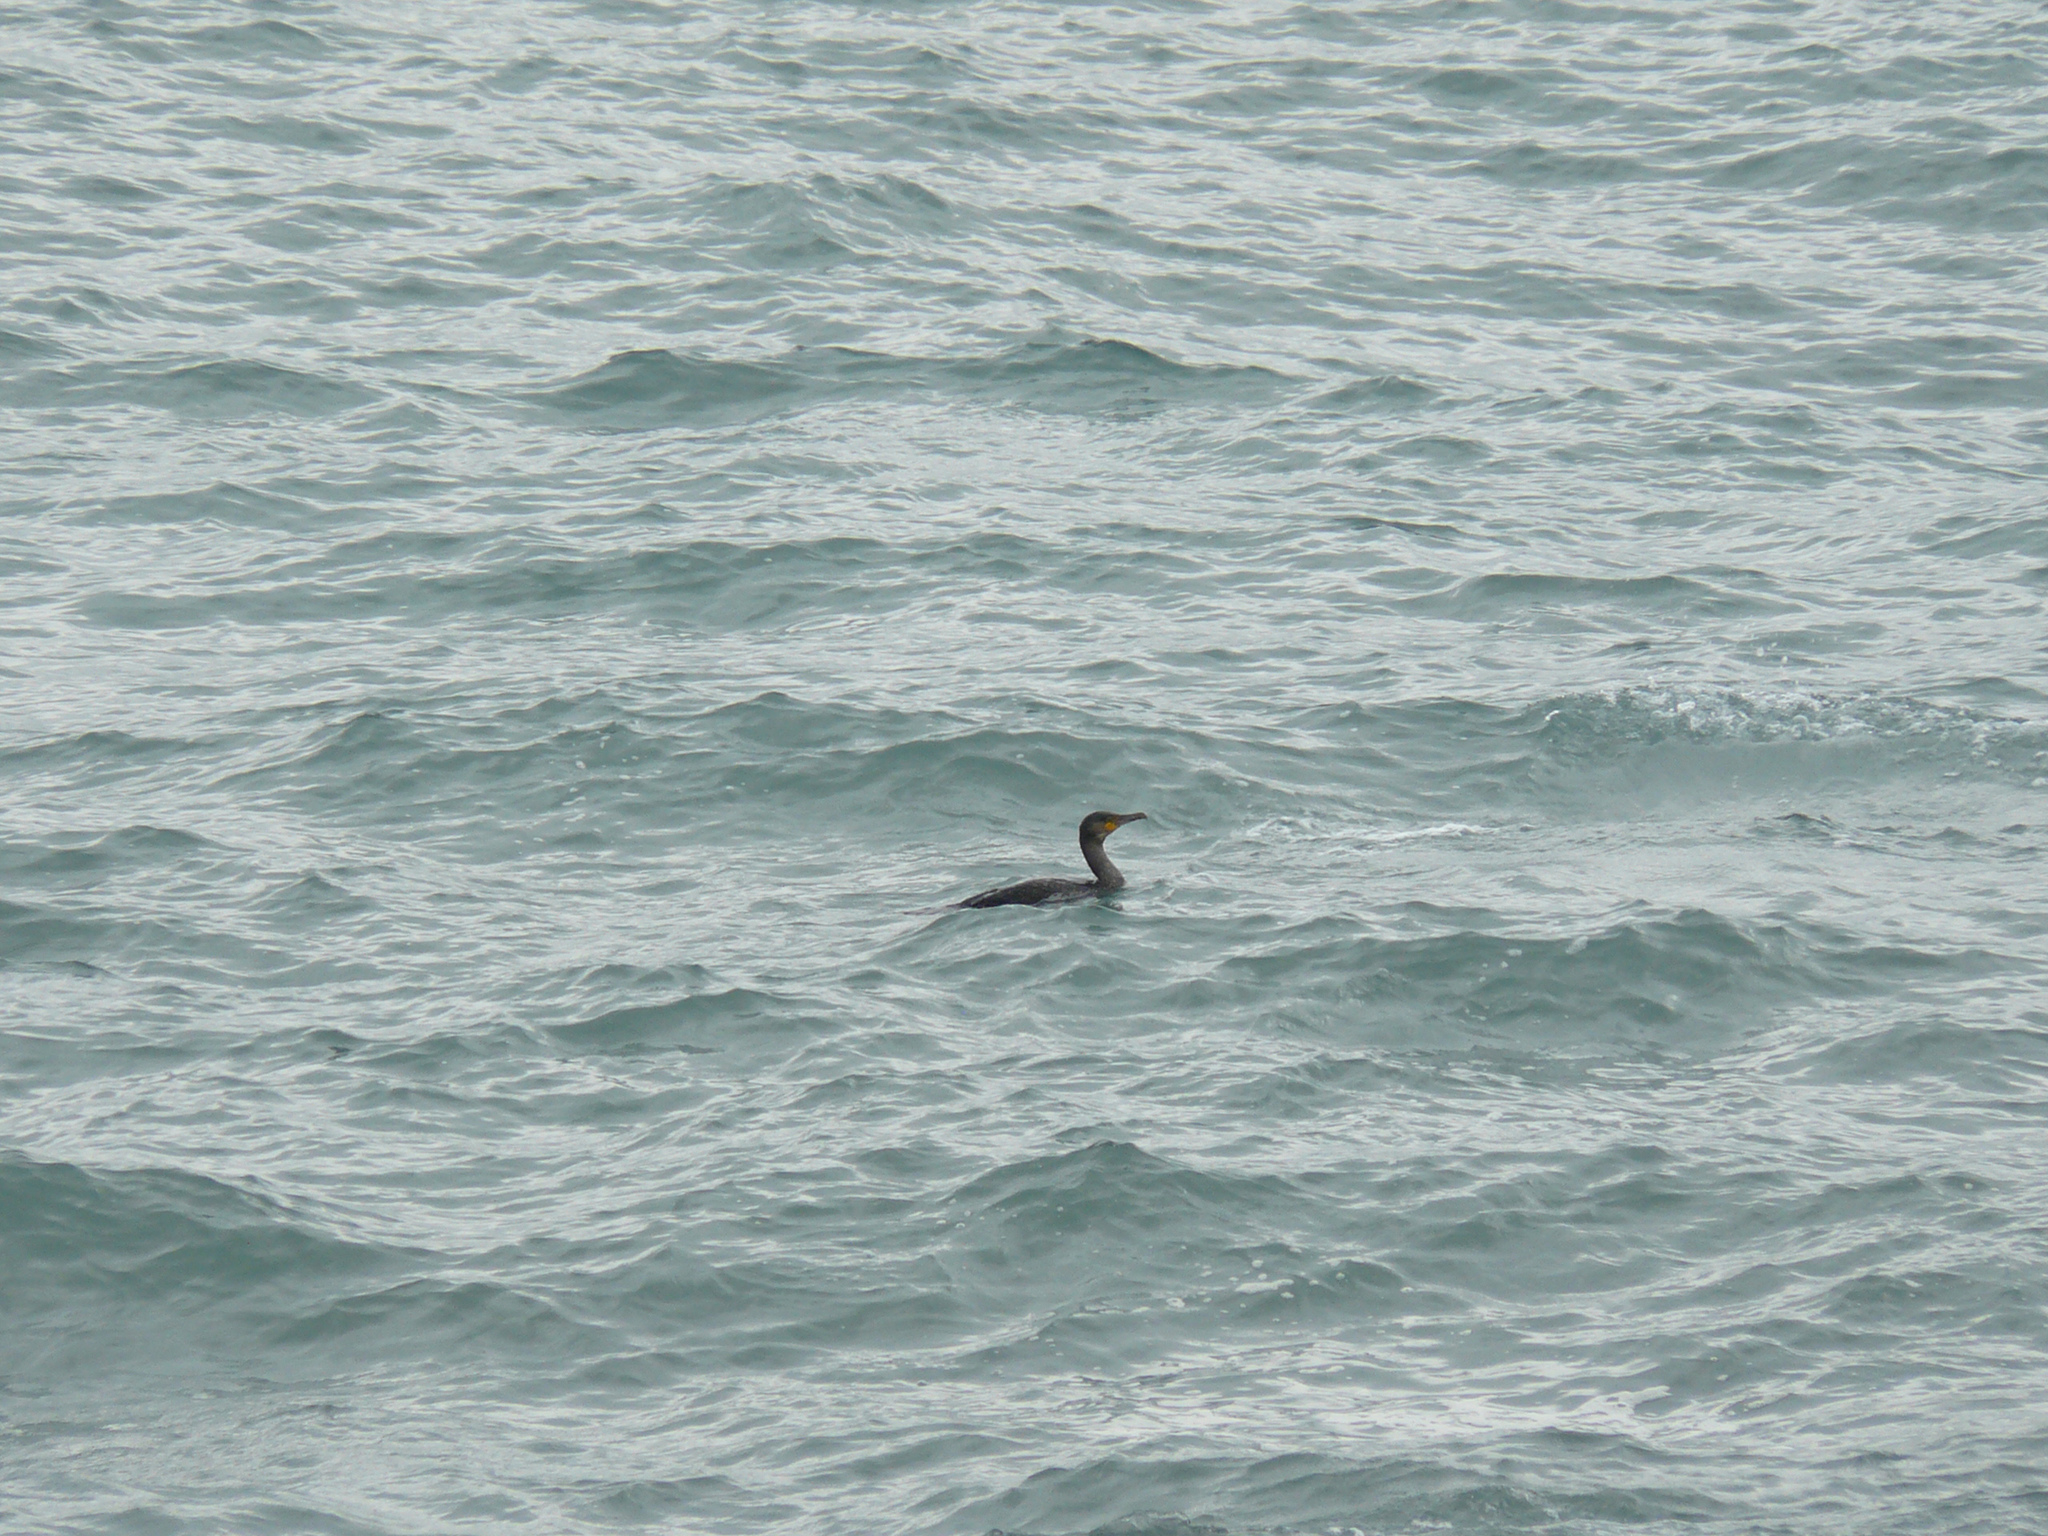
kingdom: Animalia
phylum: Chordata
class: Aves
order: Suliformes
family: Phalacrocoracidae
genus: Phalacrocorax
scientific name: Phalacrocorax carbo
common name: Great cormorant
